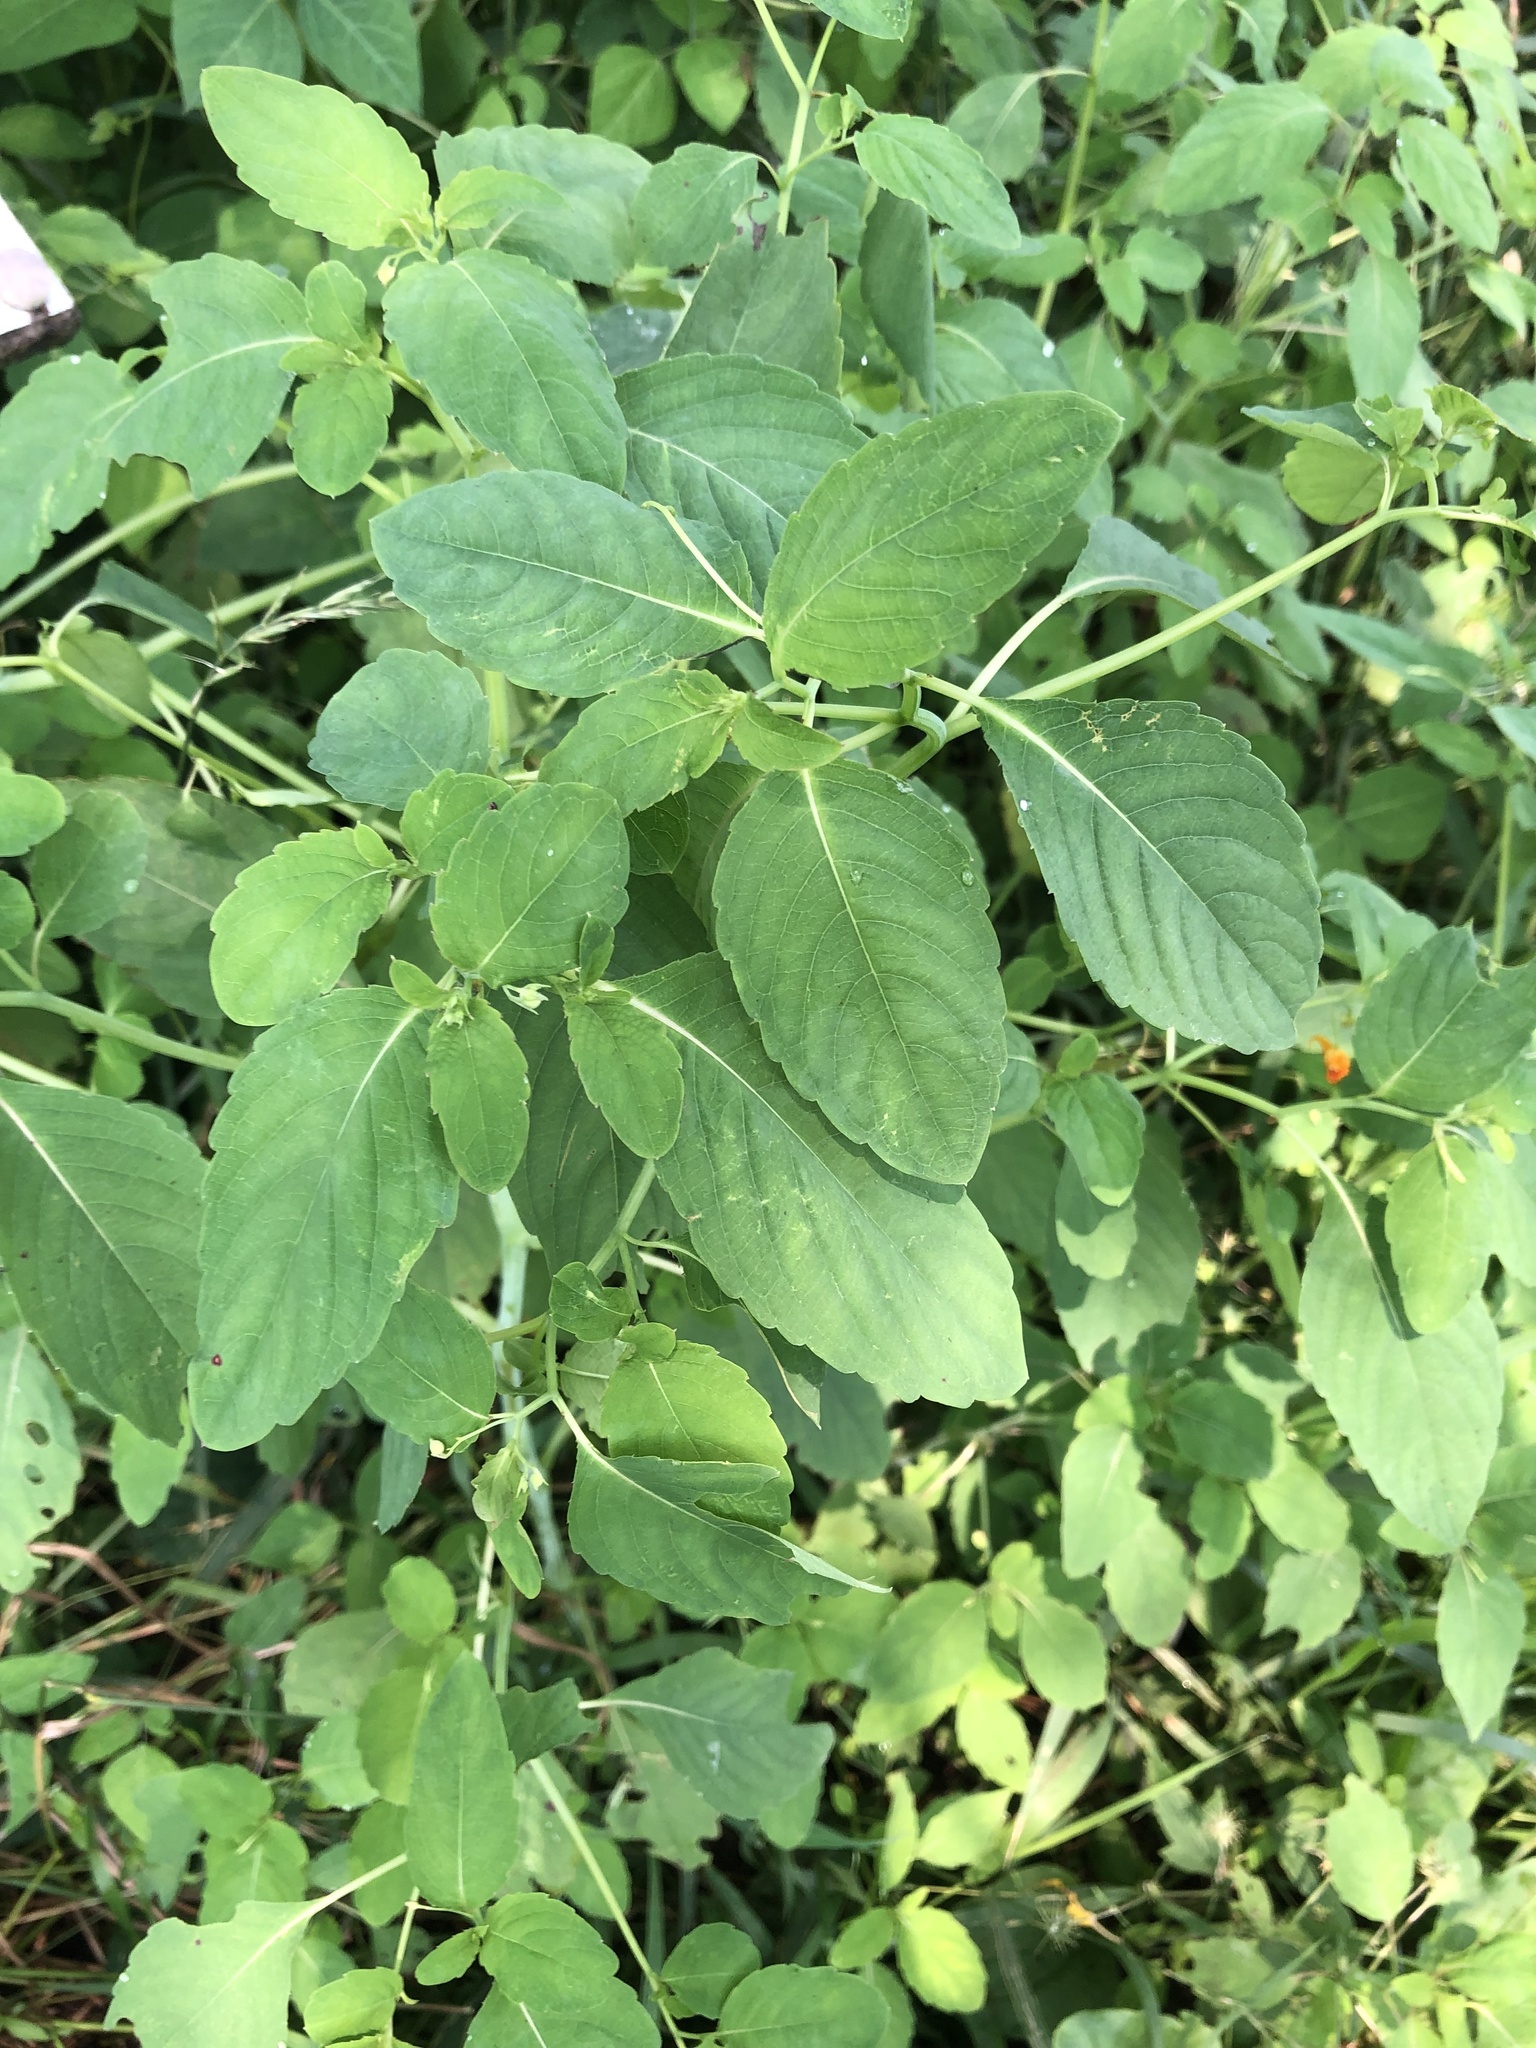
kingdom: Plantae
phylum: Tracheophyta
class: Magnoliopsida
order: Ericales
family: Balsaminaceae
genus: Impatiens
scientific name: Impatiens capensis
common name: Orange balsam
